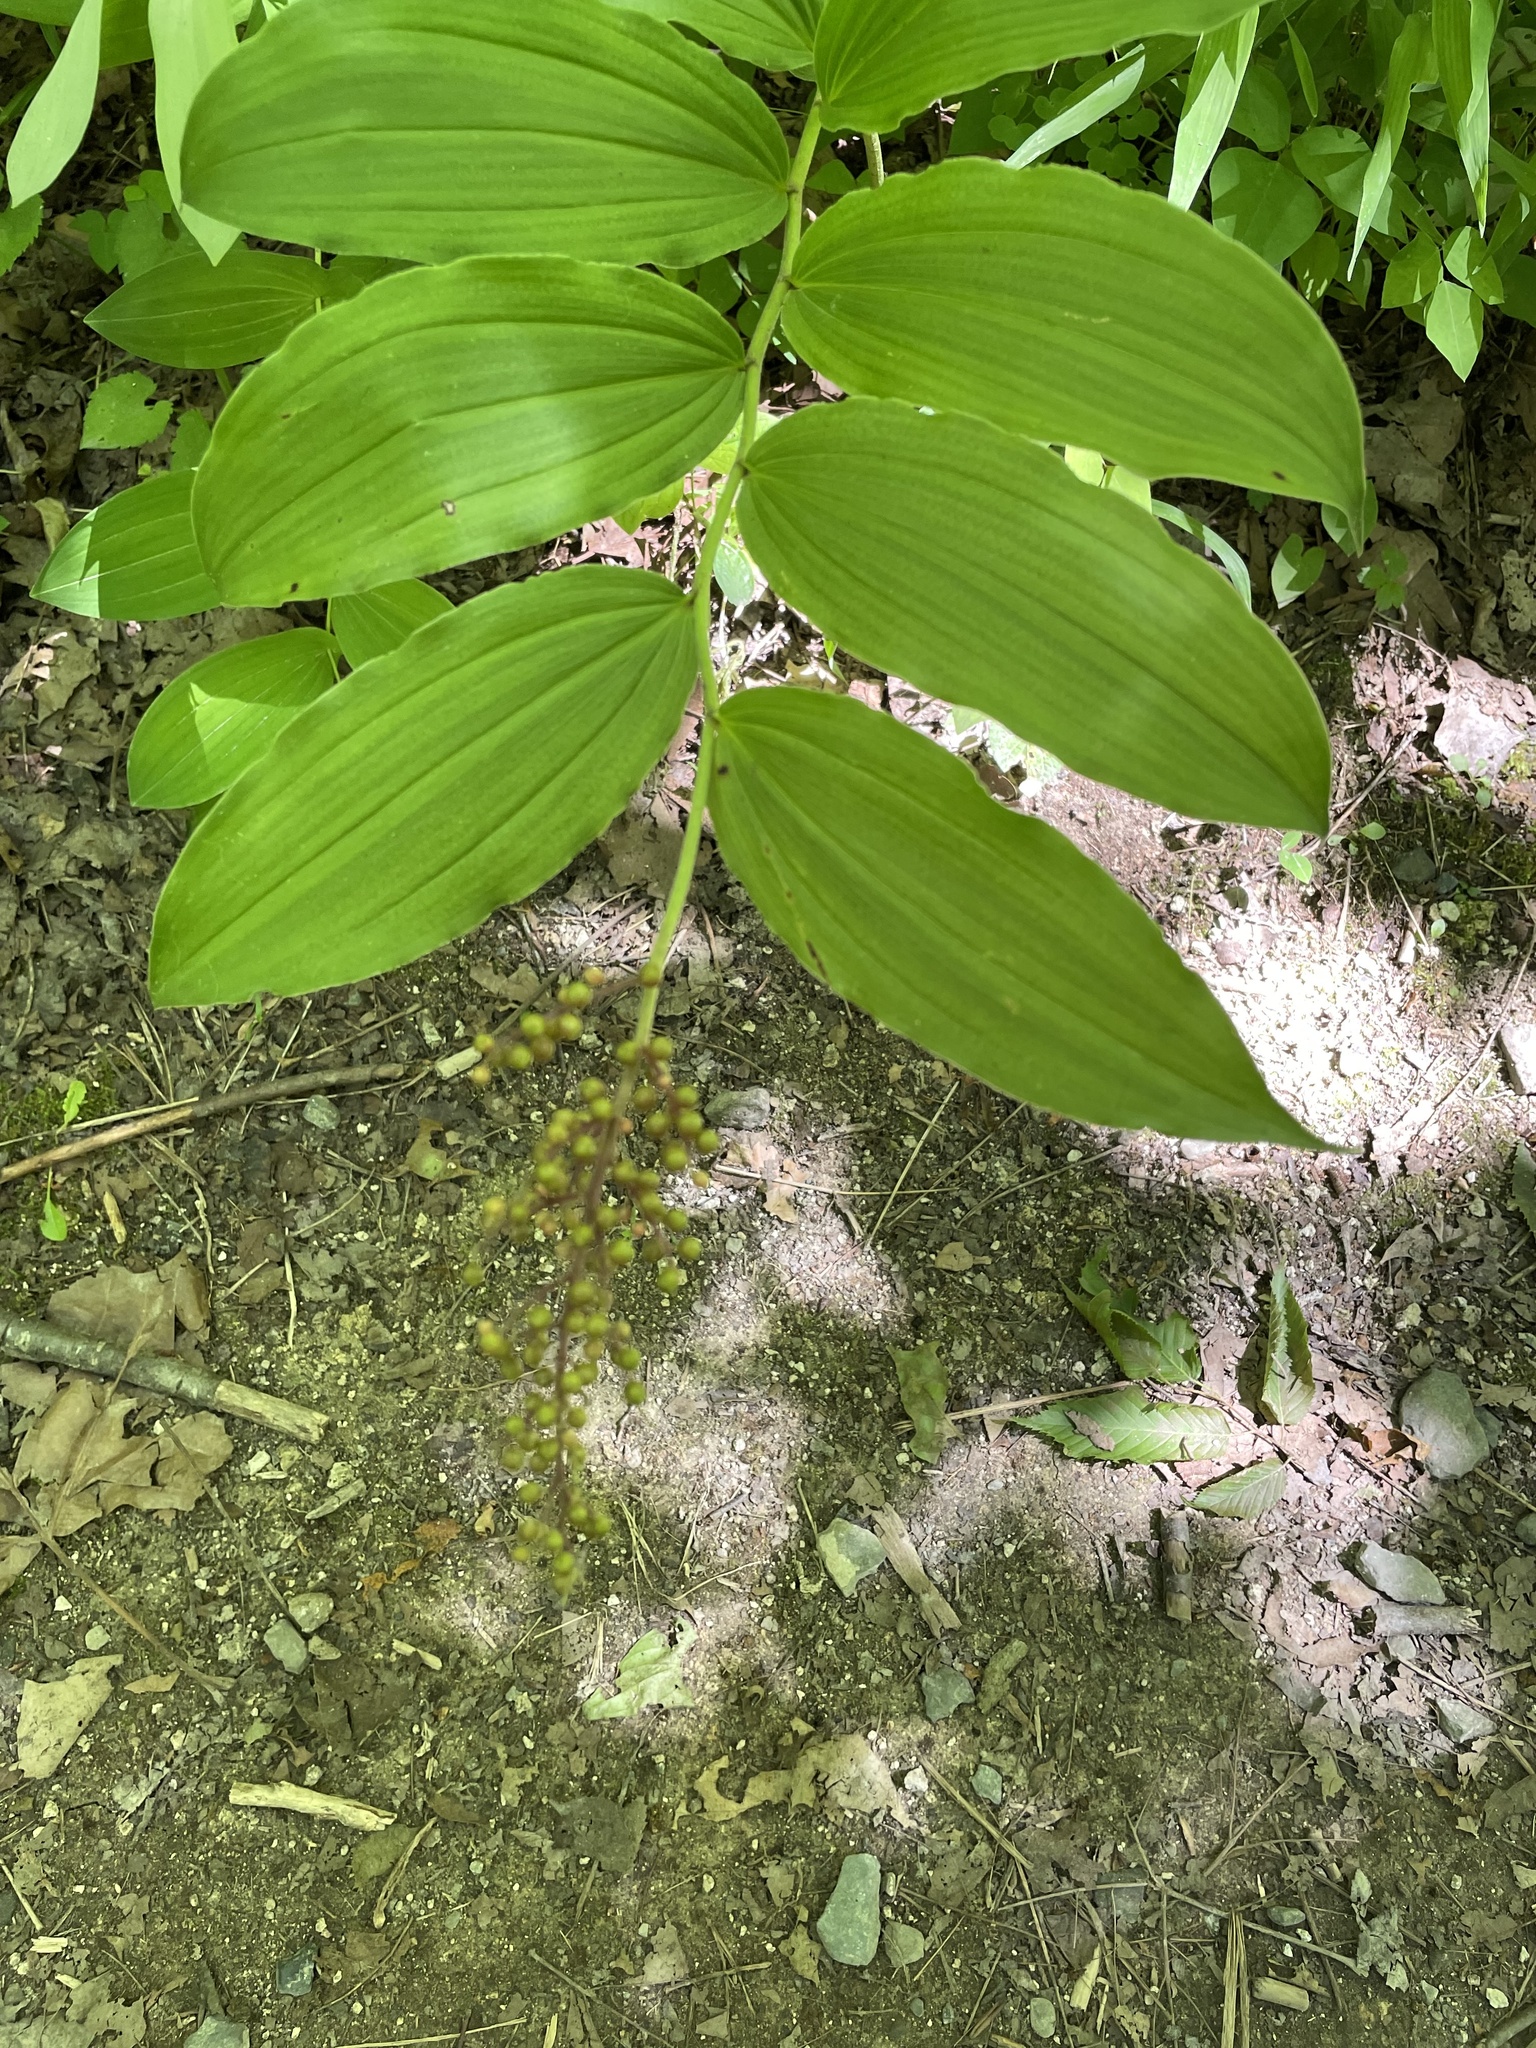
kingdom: Plantae
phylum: Tracheophyta
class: Liliopsida
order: Asparagales
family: Asparagaceae
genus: Maianthemum
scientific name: Maianthemum racemosum
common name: False spikenard
